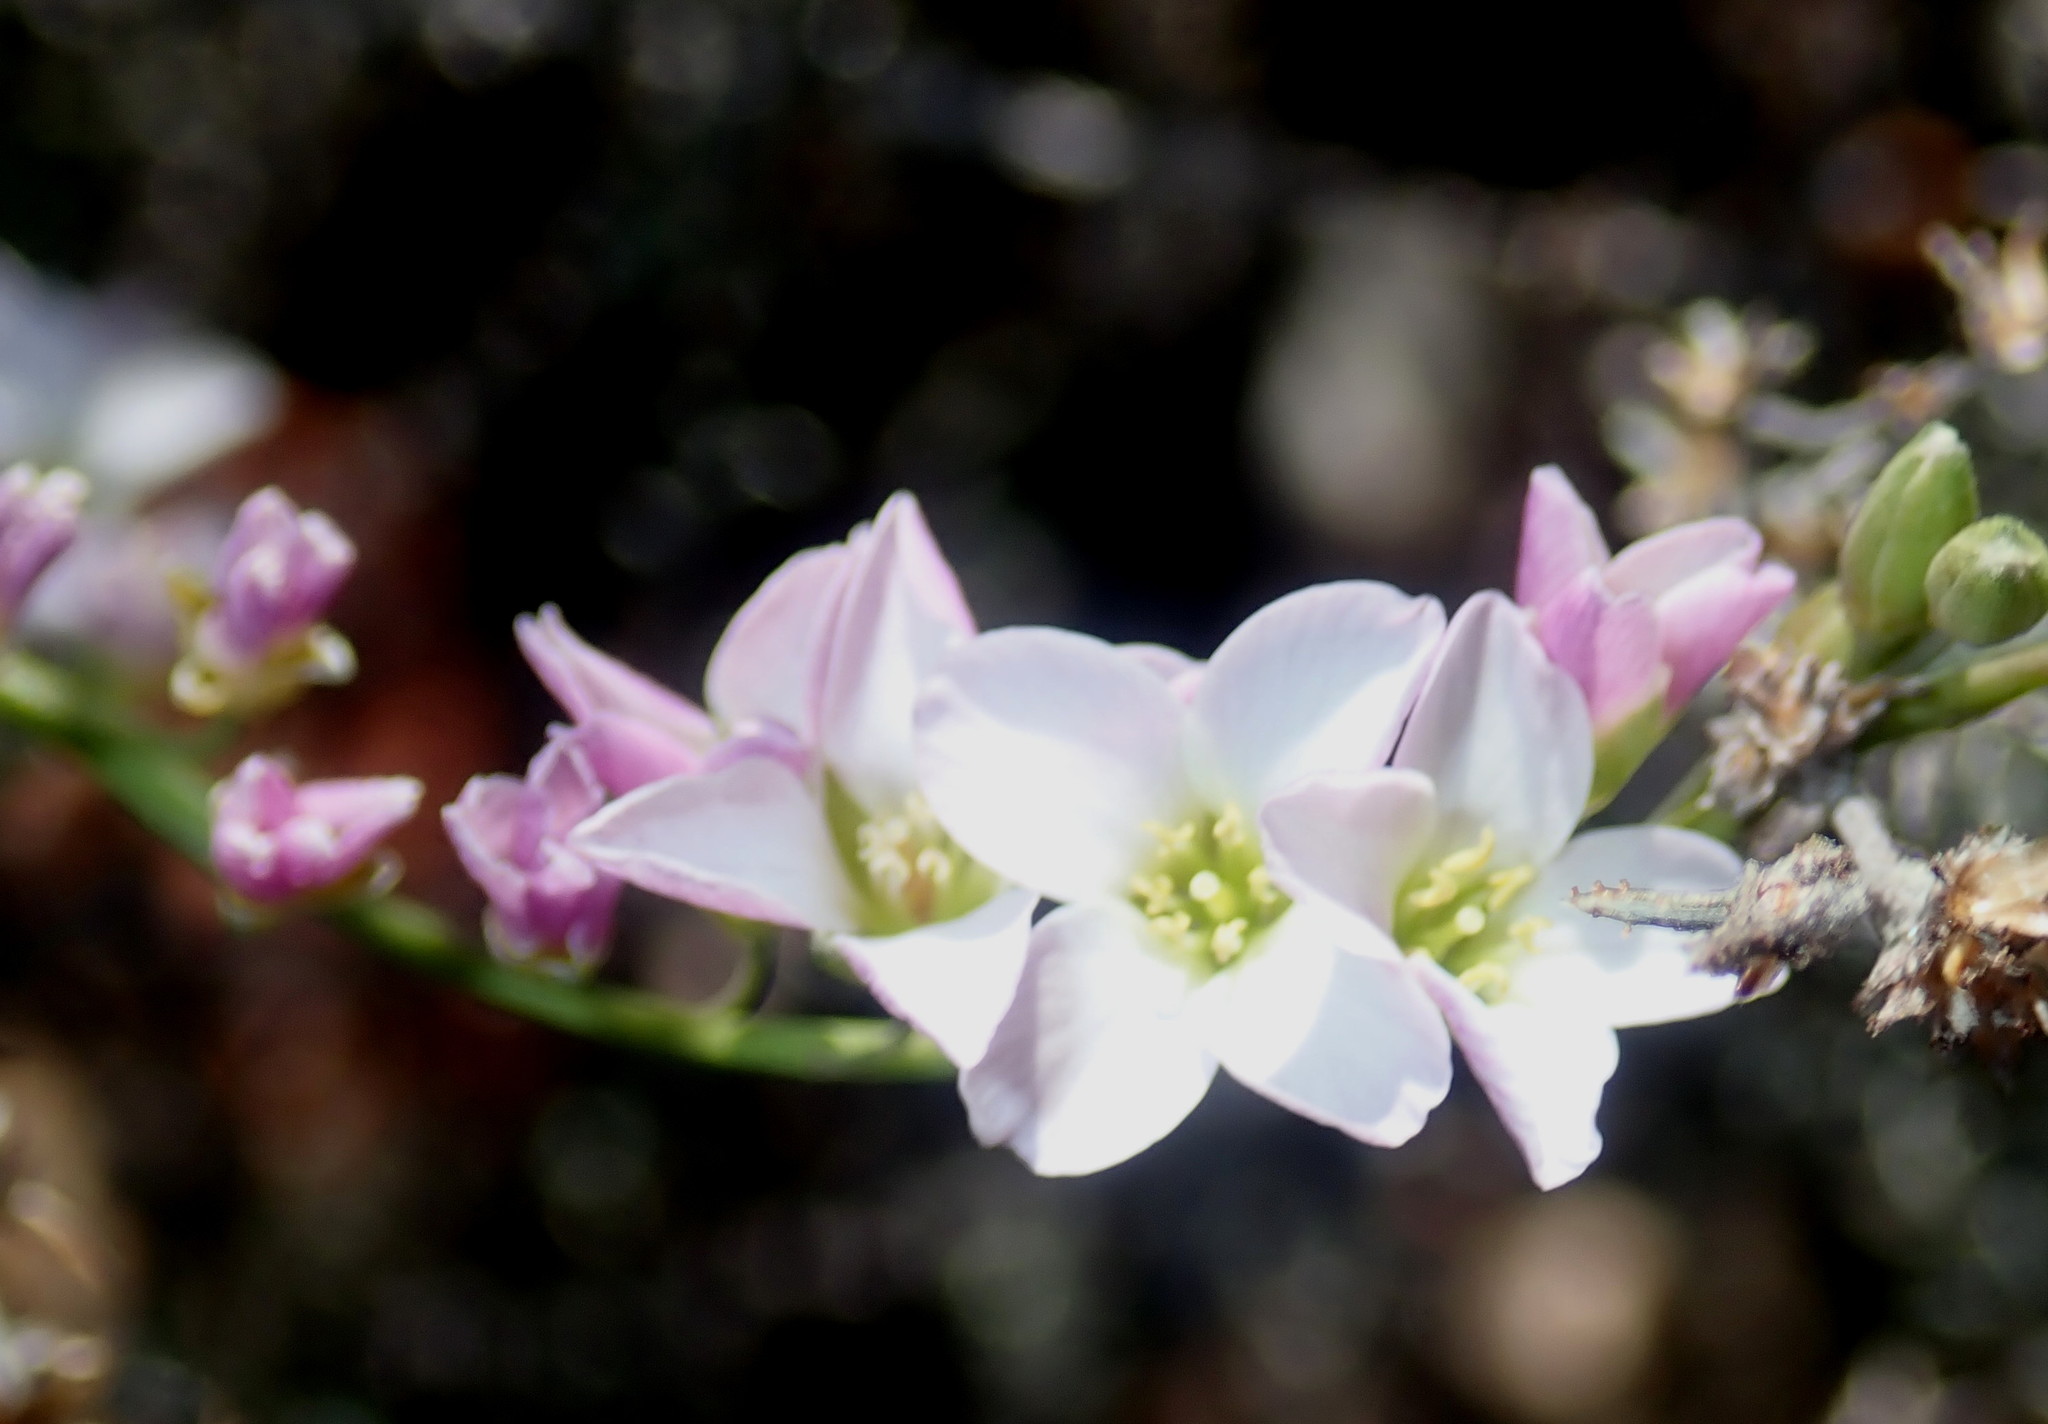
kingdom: Plantae
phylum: Tracheophyta
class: Magnoliopsida
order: Brassicales
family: Brassicaceae
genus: Heliophila
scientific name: Heliophila glauca
